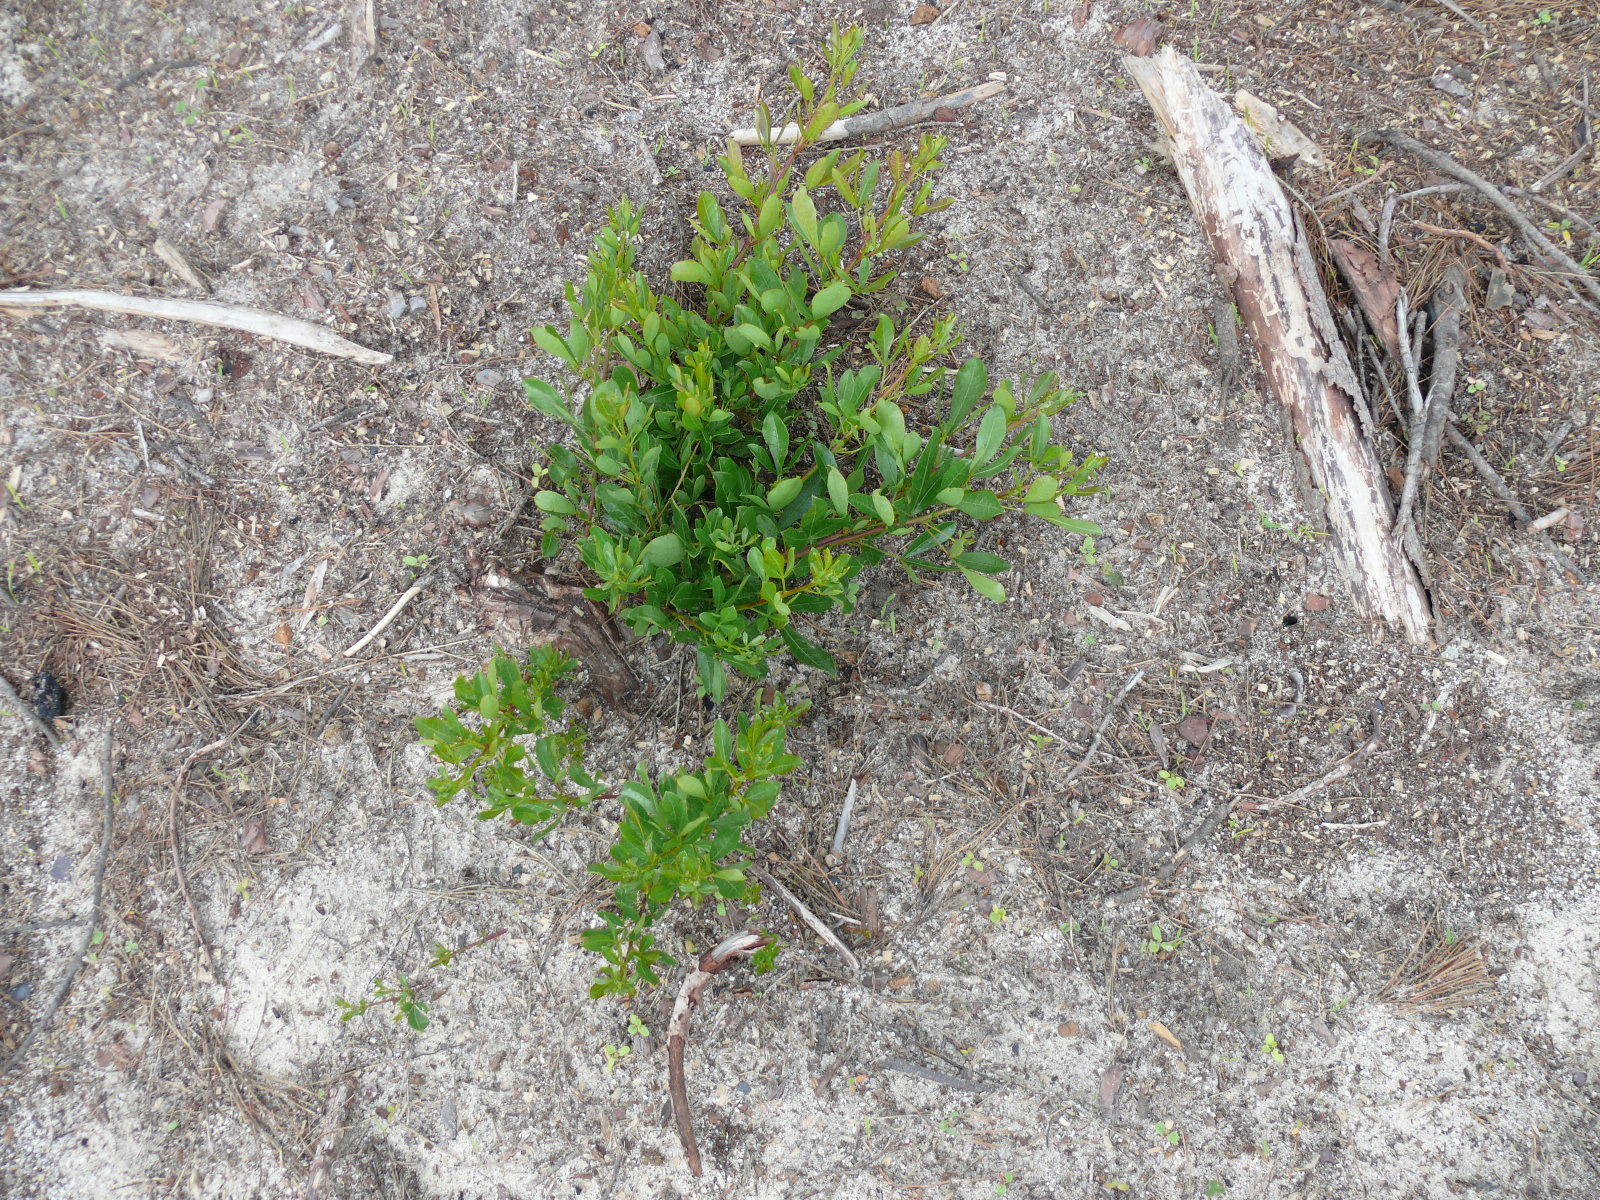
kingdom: Plantae
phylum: Tracheophyta
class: Magnoliopsida
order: Sapindales
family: Anacardiaceae
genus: Searsia
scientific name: Searsia laevigata
